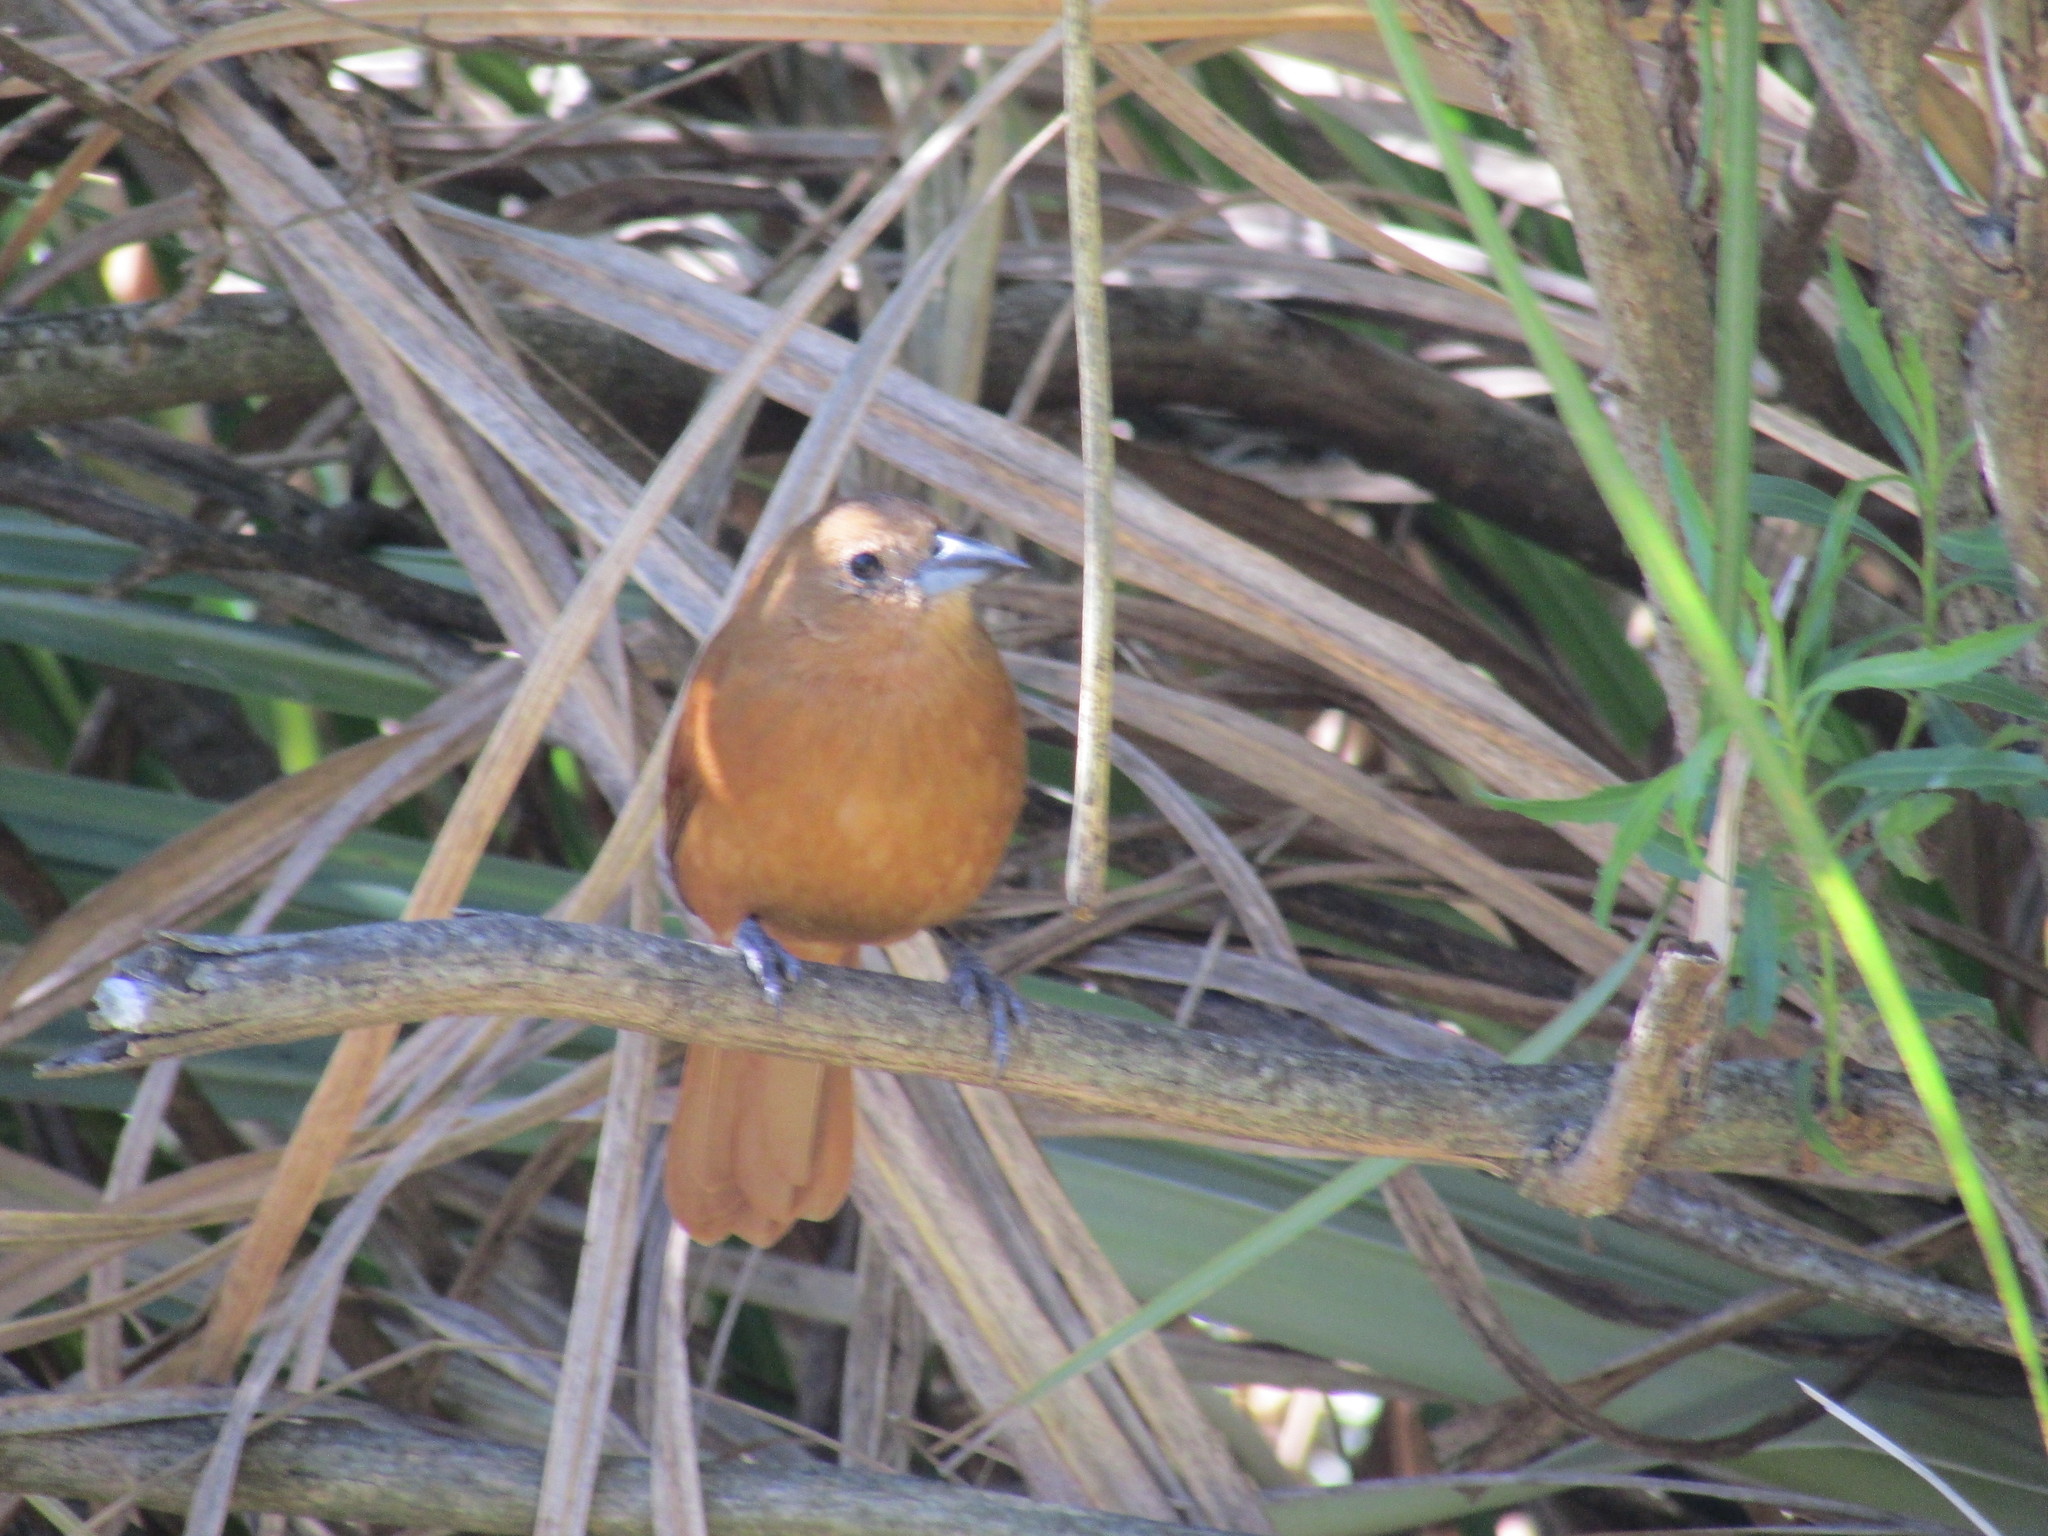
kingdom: Animalia
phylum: Chordata
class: Aves
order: Passeriformes
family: Thraupidae
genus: Tachyphonus
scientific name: Tachyphonus rufus
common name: White-lined tanager
